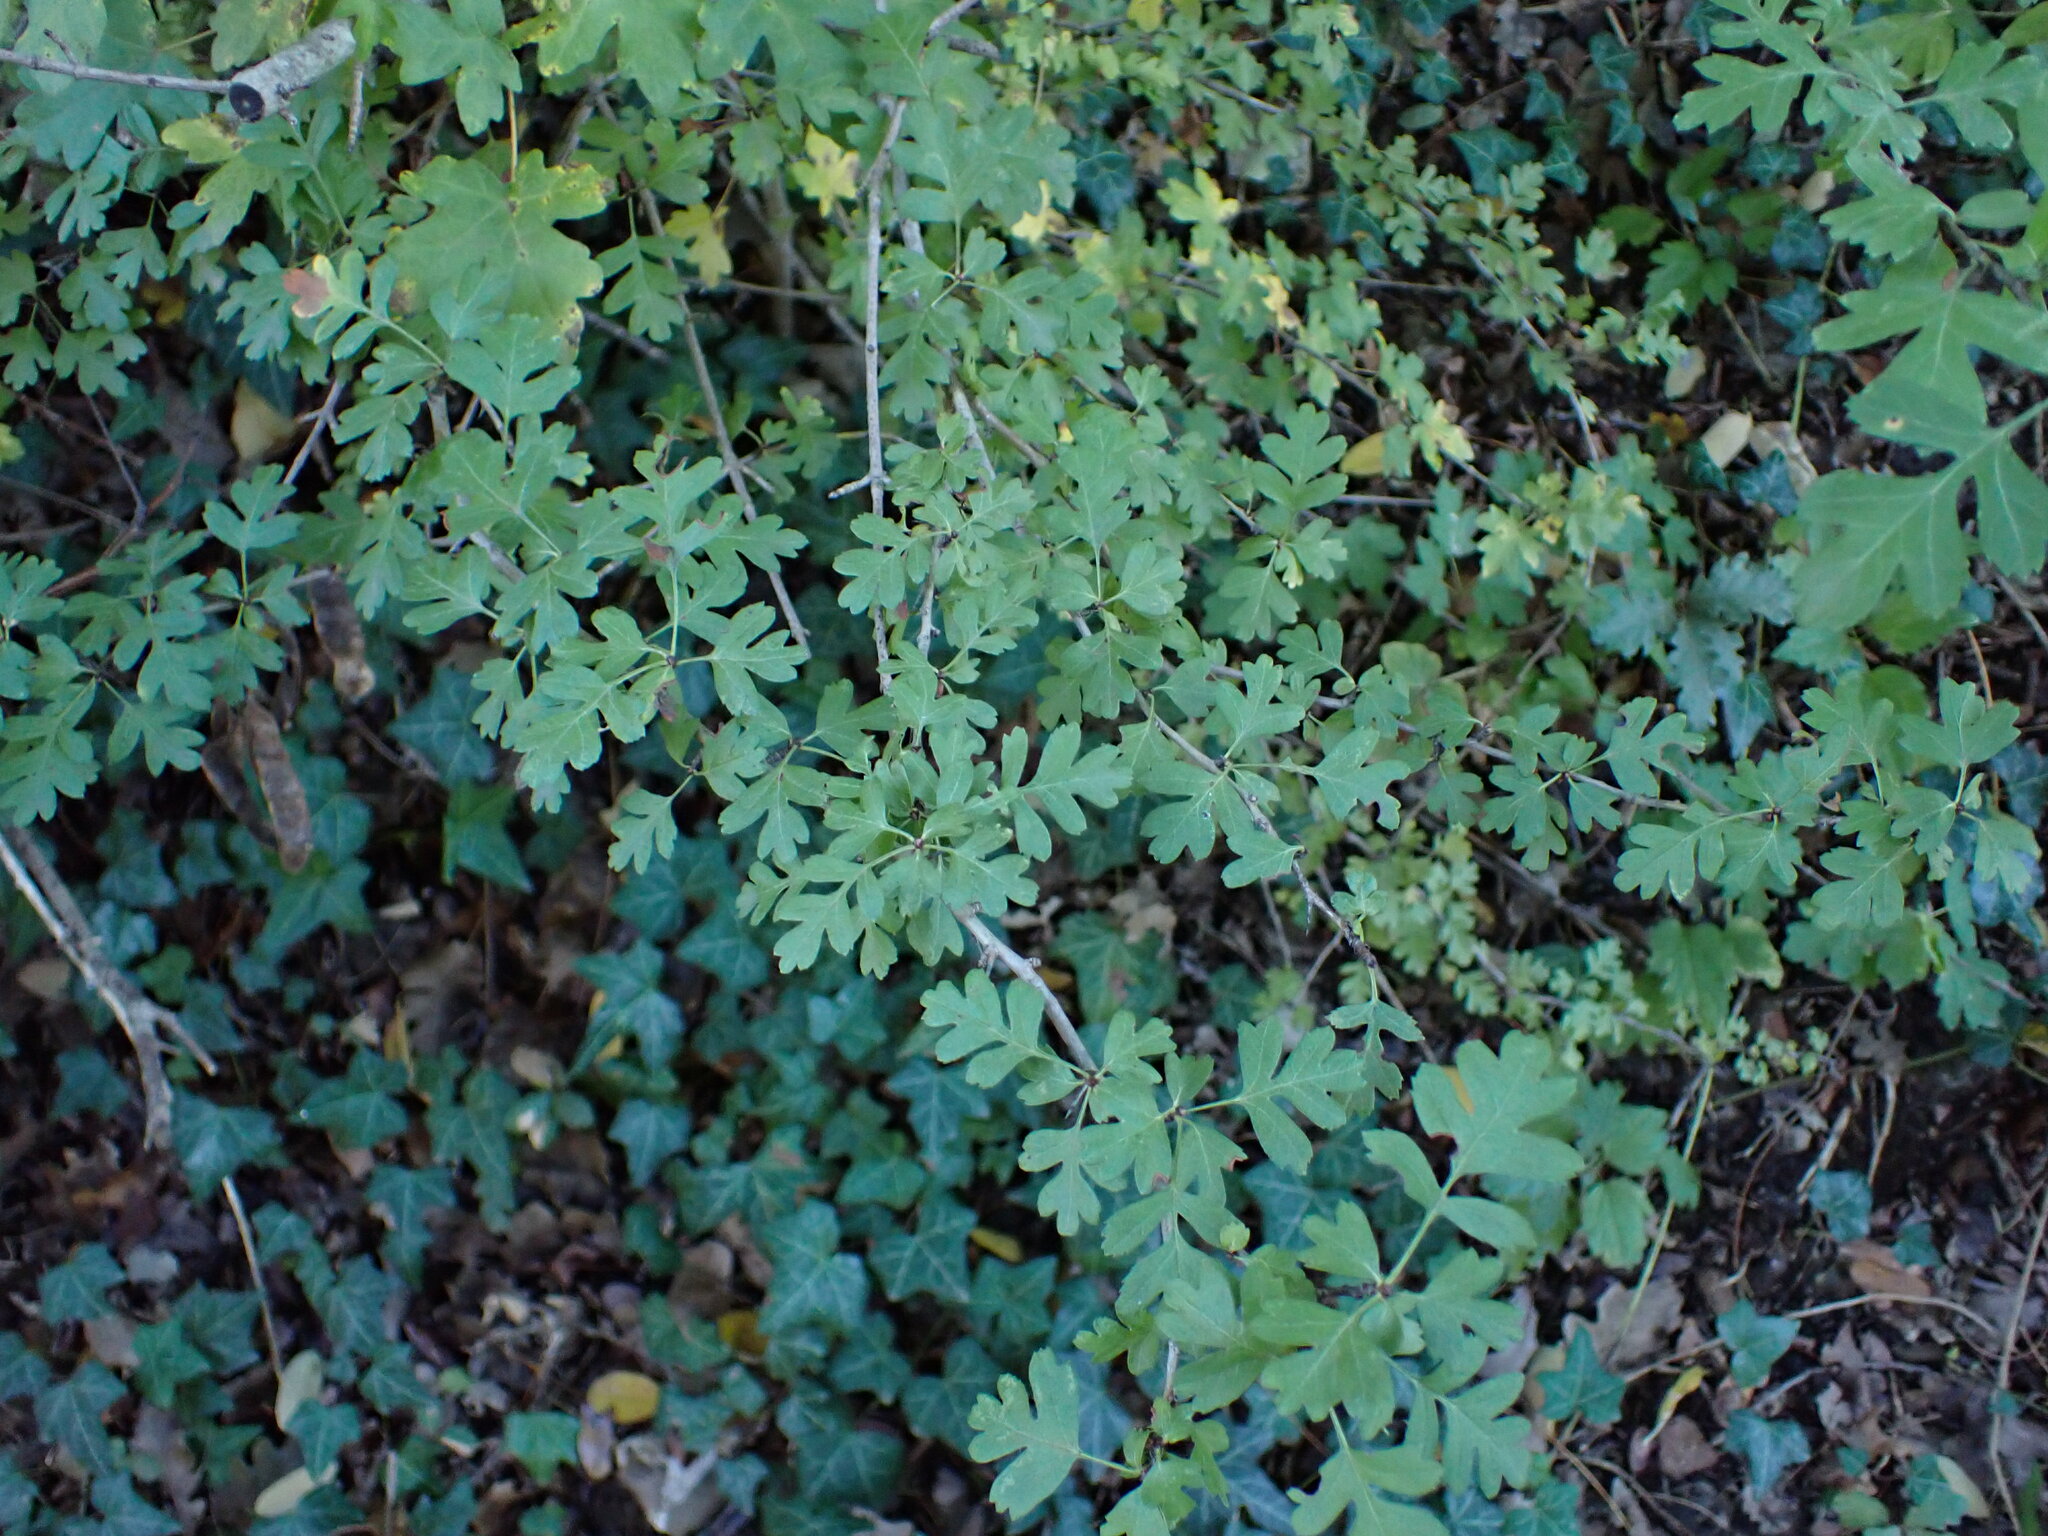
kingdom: Plantae
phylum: Tracheophyta
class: Magnoliopsida
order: Rosales
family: Rosaceae
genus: Crataegus
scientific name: Crataegus monogyna
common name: Hawthorn
